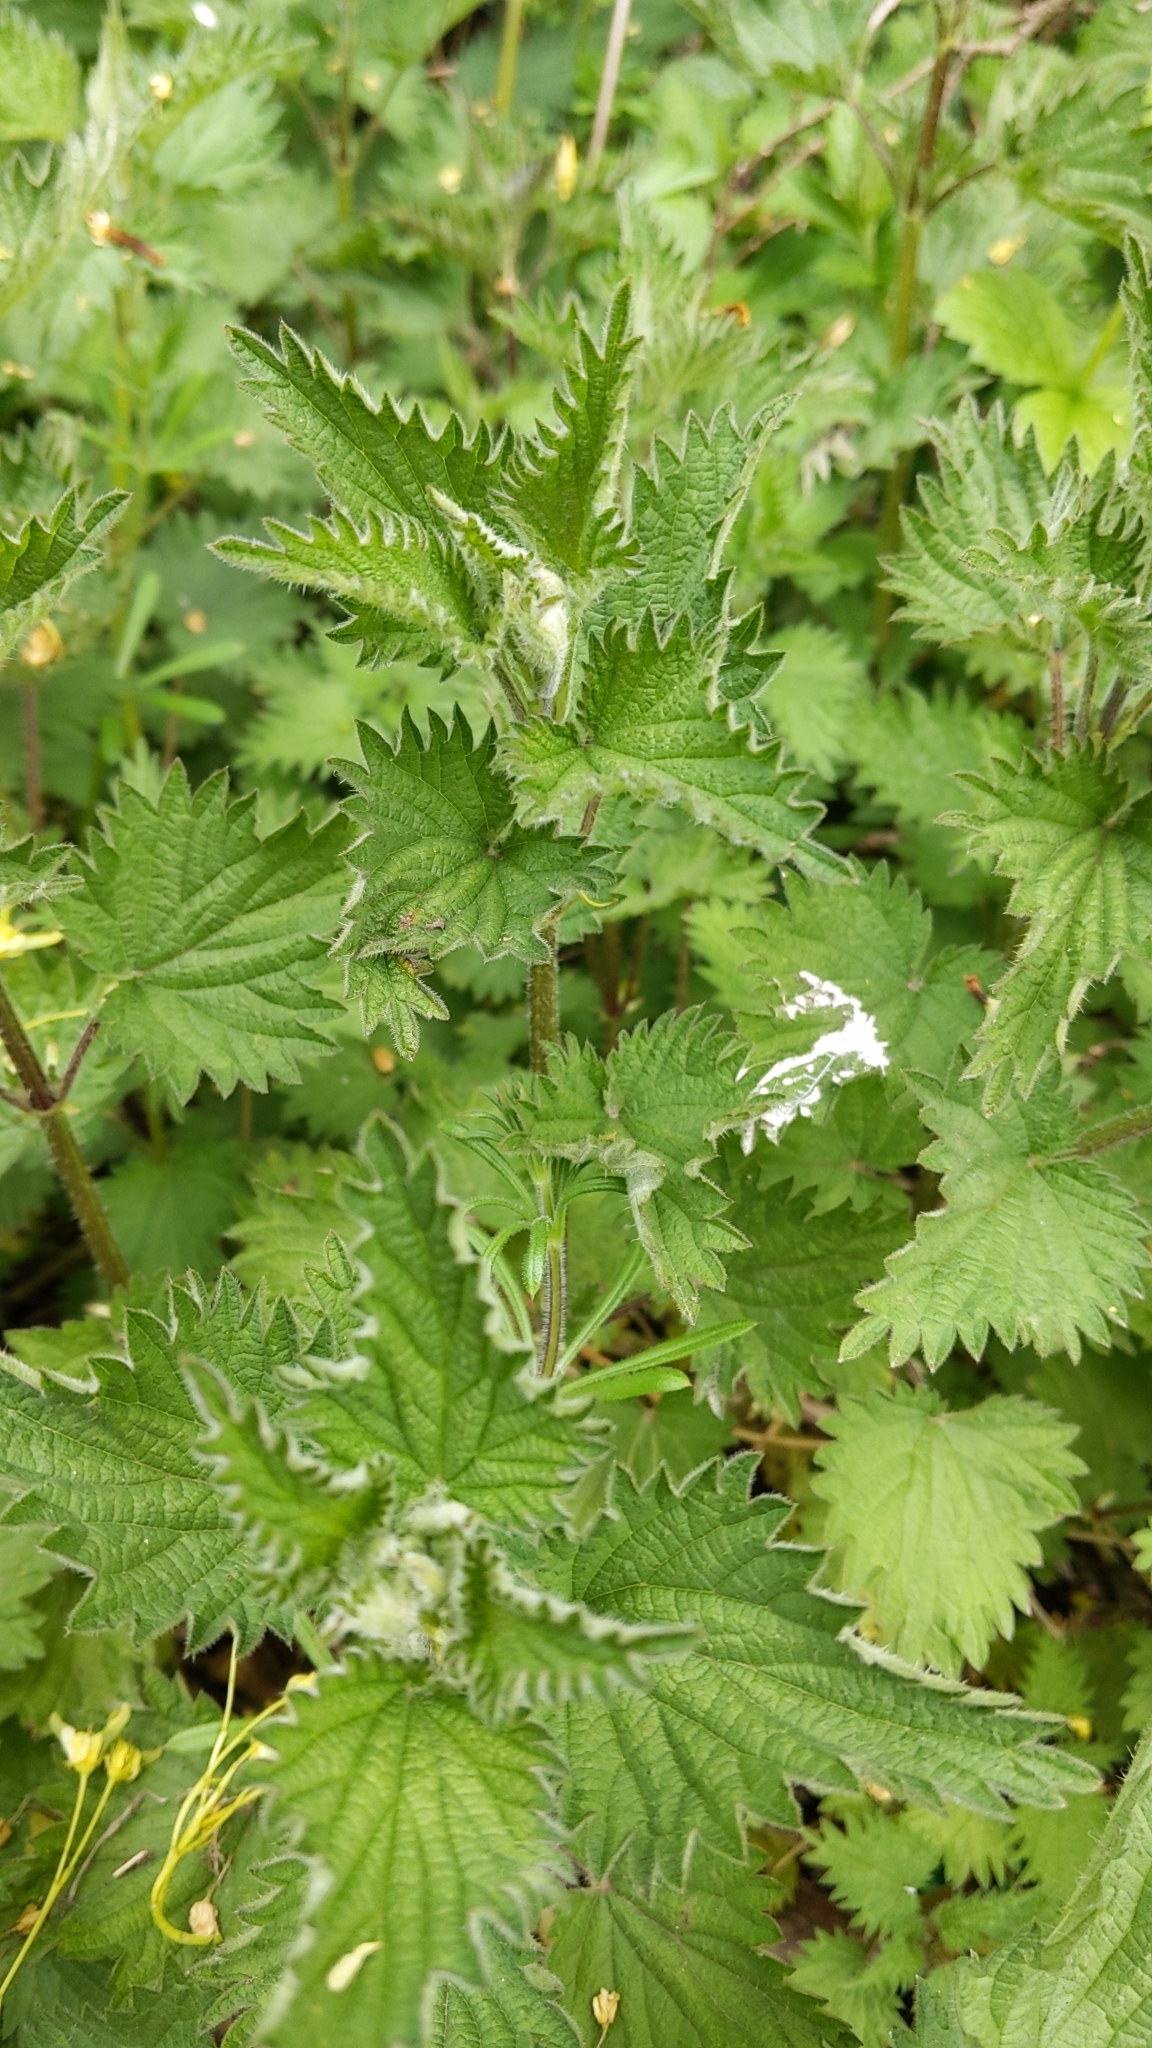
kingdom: Plantae
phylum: Tracheophyta
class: Magnoliopsida
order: Rosales
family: Urticaceae
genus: Urtica
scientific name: Urtica dioica
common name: Common nettle
